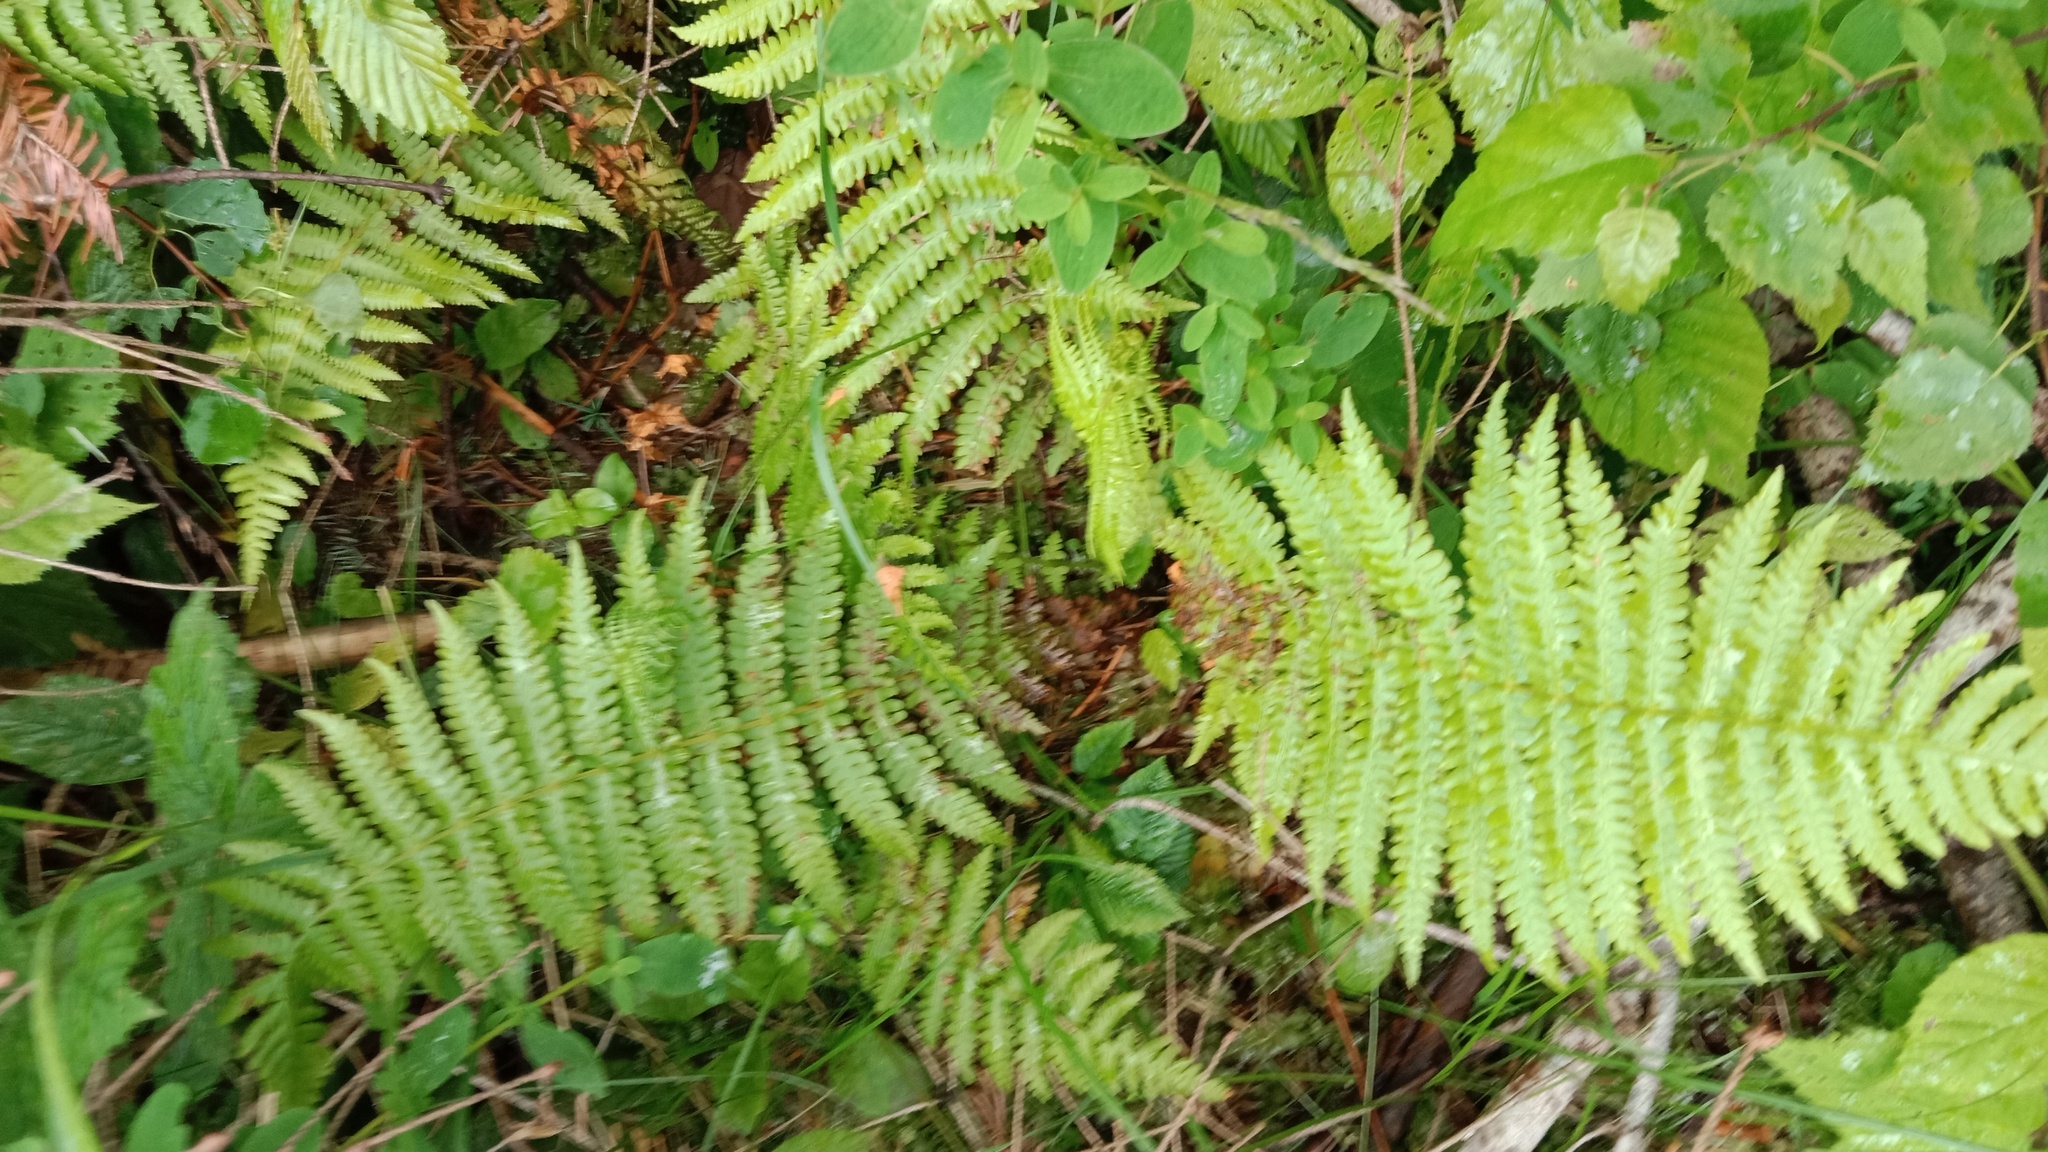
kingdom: Plantae
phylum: Tracheophyta
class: Polypodiopsida
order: Polypodiales
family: Thelypteridaceae
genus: Oreopteris
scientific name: Oreopteris limbosperma
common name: Lemon-scented fern
